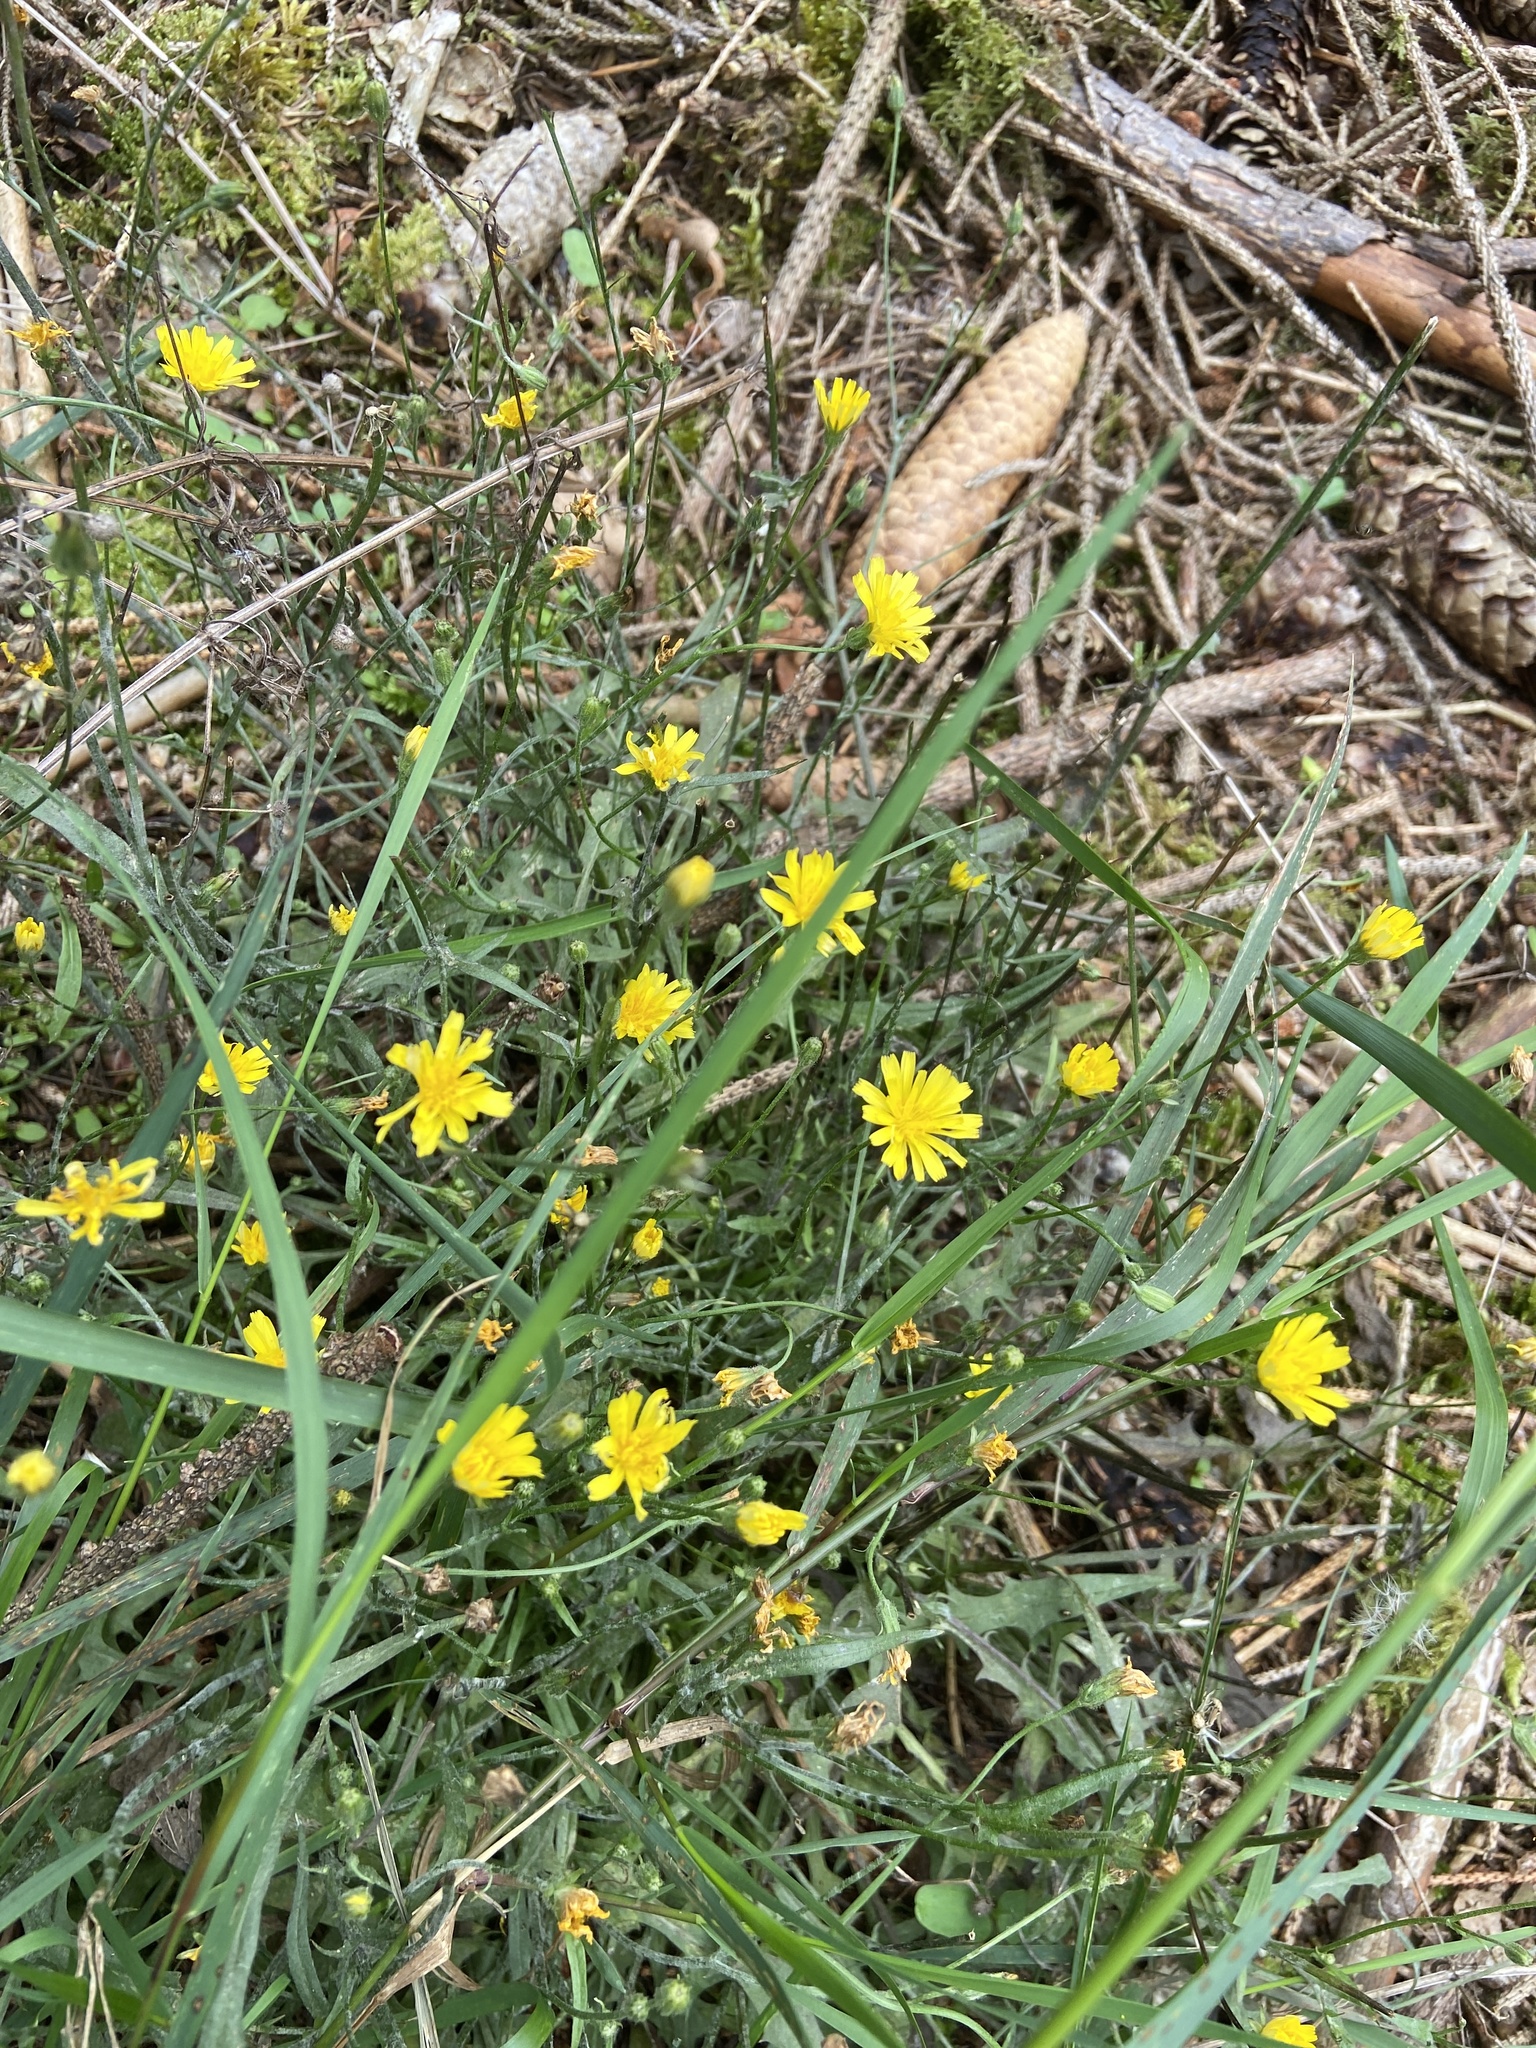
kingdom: Plantae
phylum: Tracheophyta
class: Magnoliopsida
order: Asterales
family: Asteraceae
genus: Crepis
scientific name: Crepis capillaris
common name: Smooth hawksbeard
